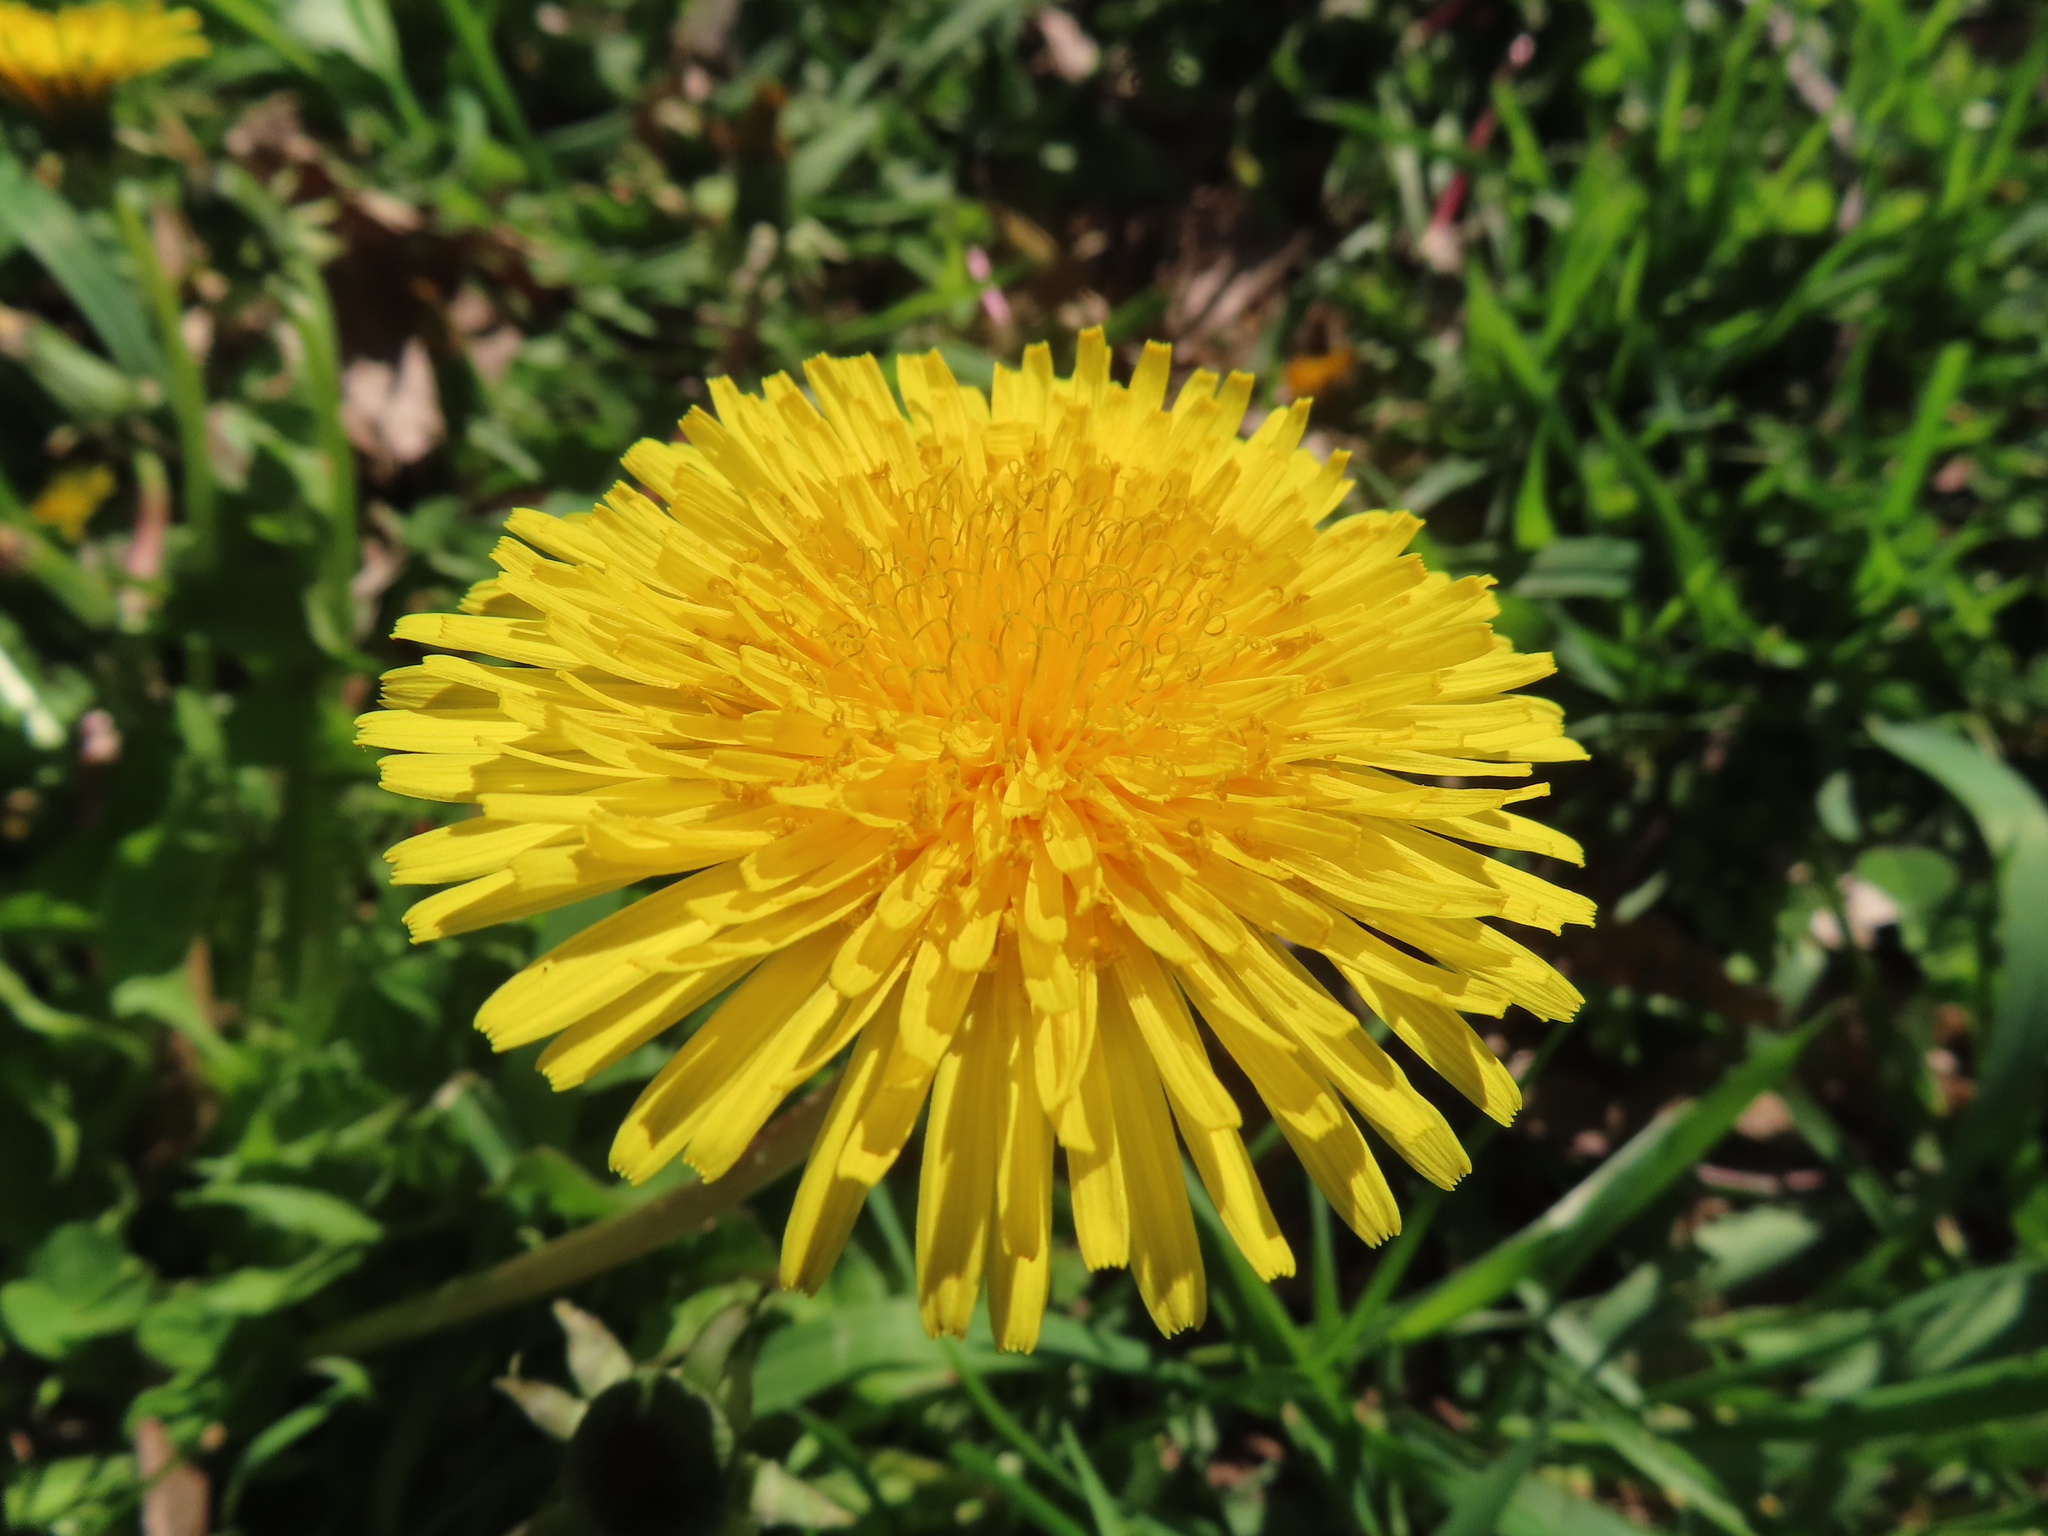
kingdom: Plantae
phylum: Tracheophyta
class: Magnoliopsida
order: Asterales
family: Asteraceae
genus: Taraxacum
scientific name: Taraxacum
